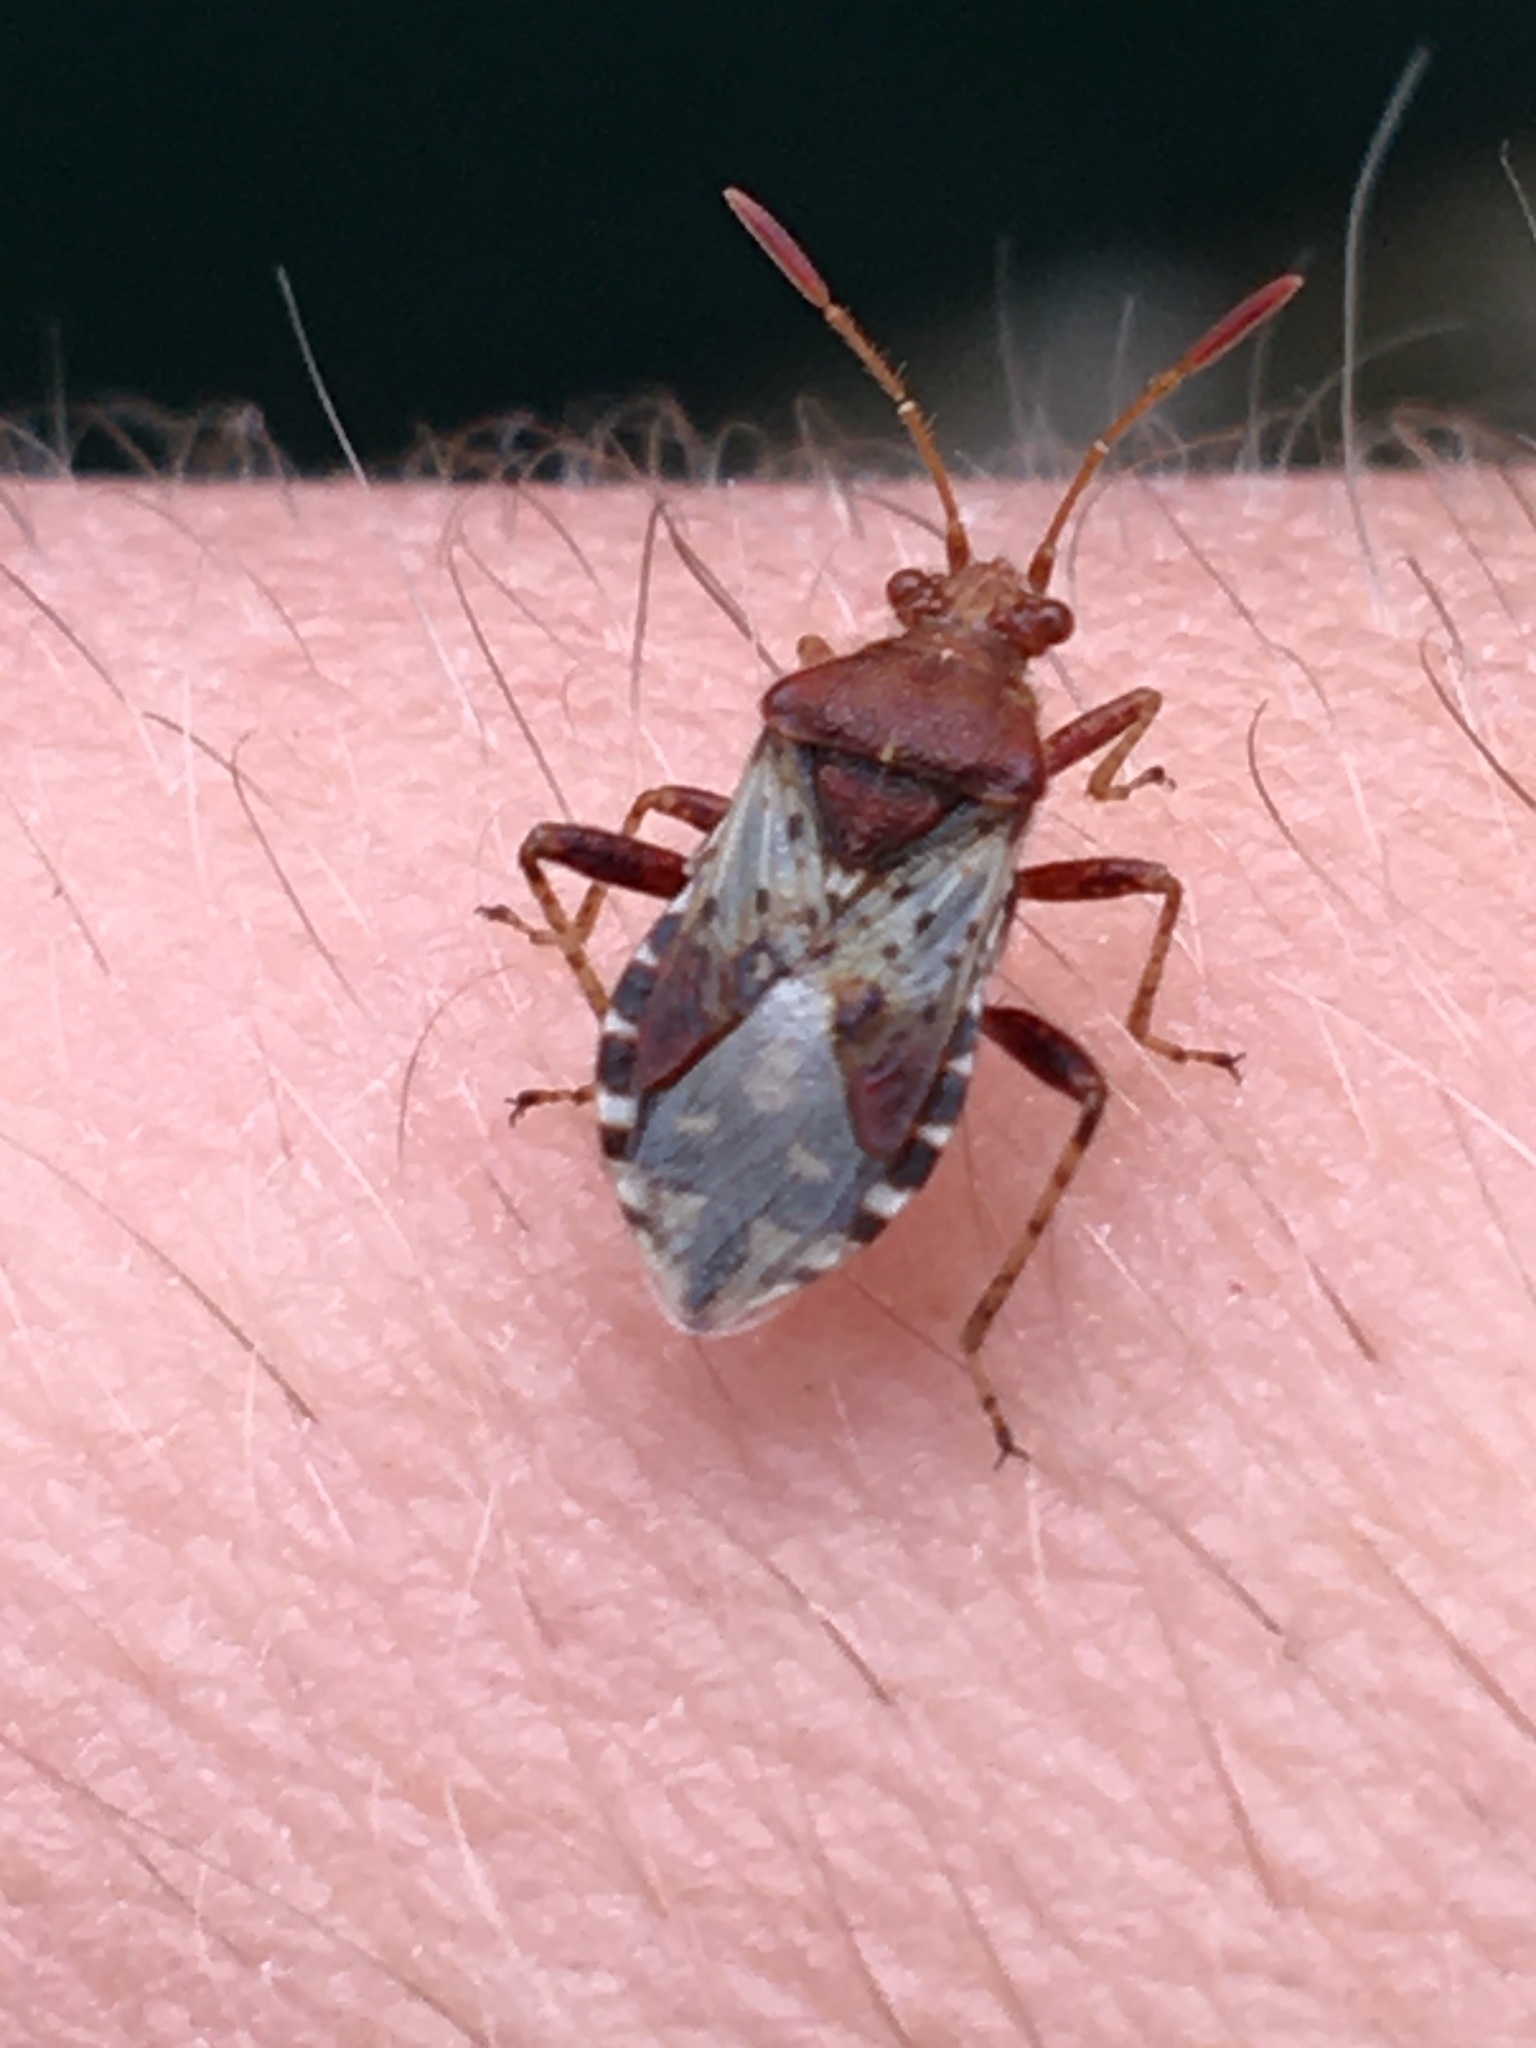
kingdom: Animalia
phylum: Arthropoda
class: Insecta
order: Hemiptera
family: Rhopalidae
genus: Rhopalus
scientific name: Rhopalus subrufus
